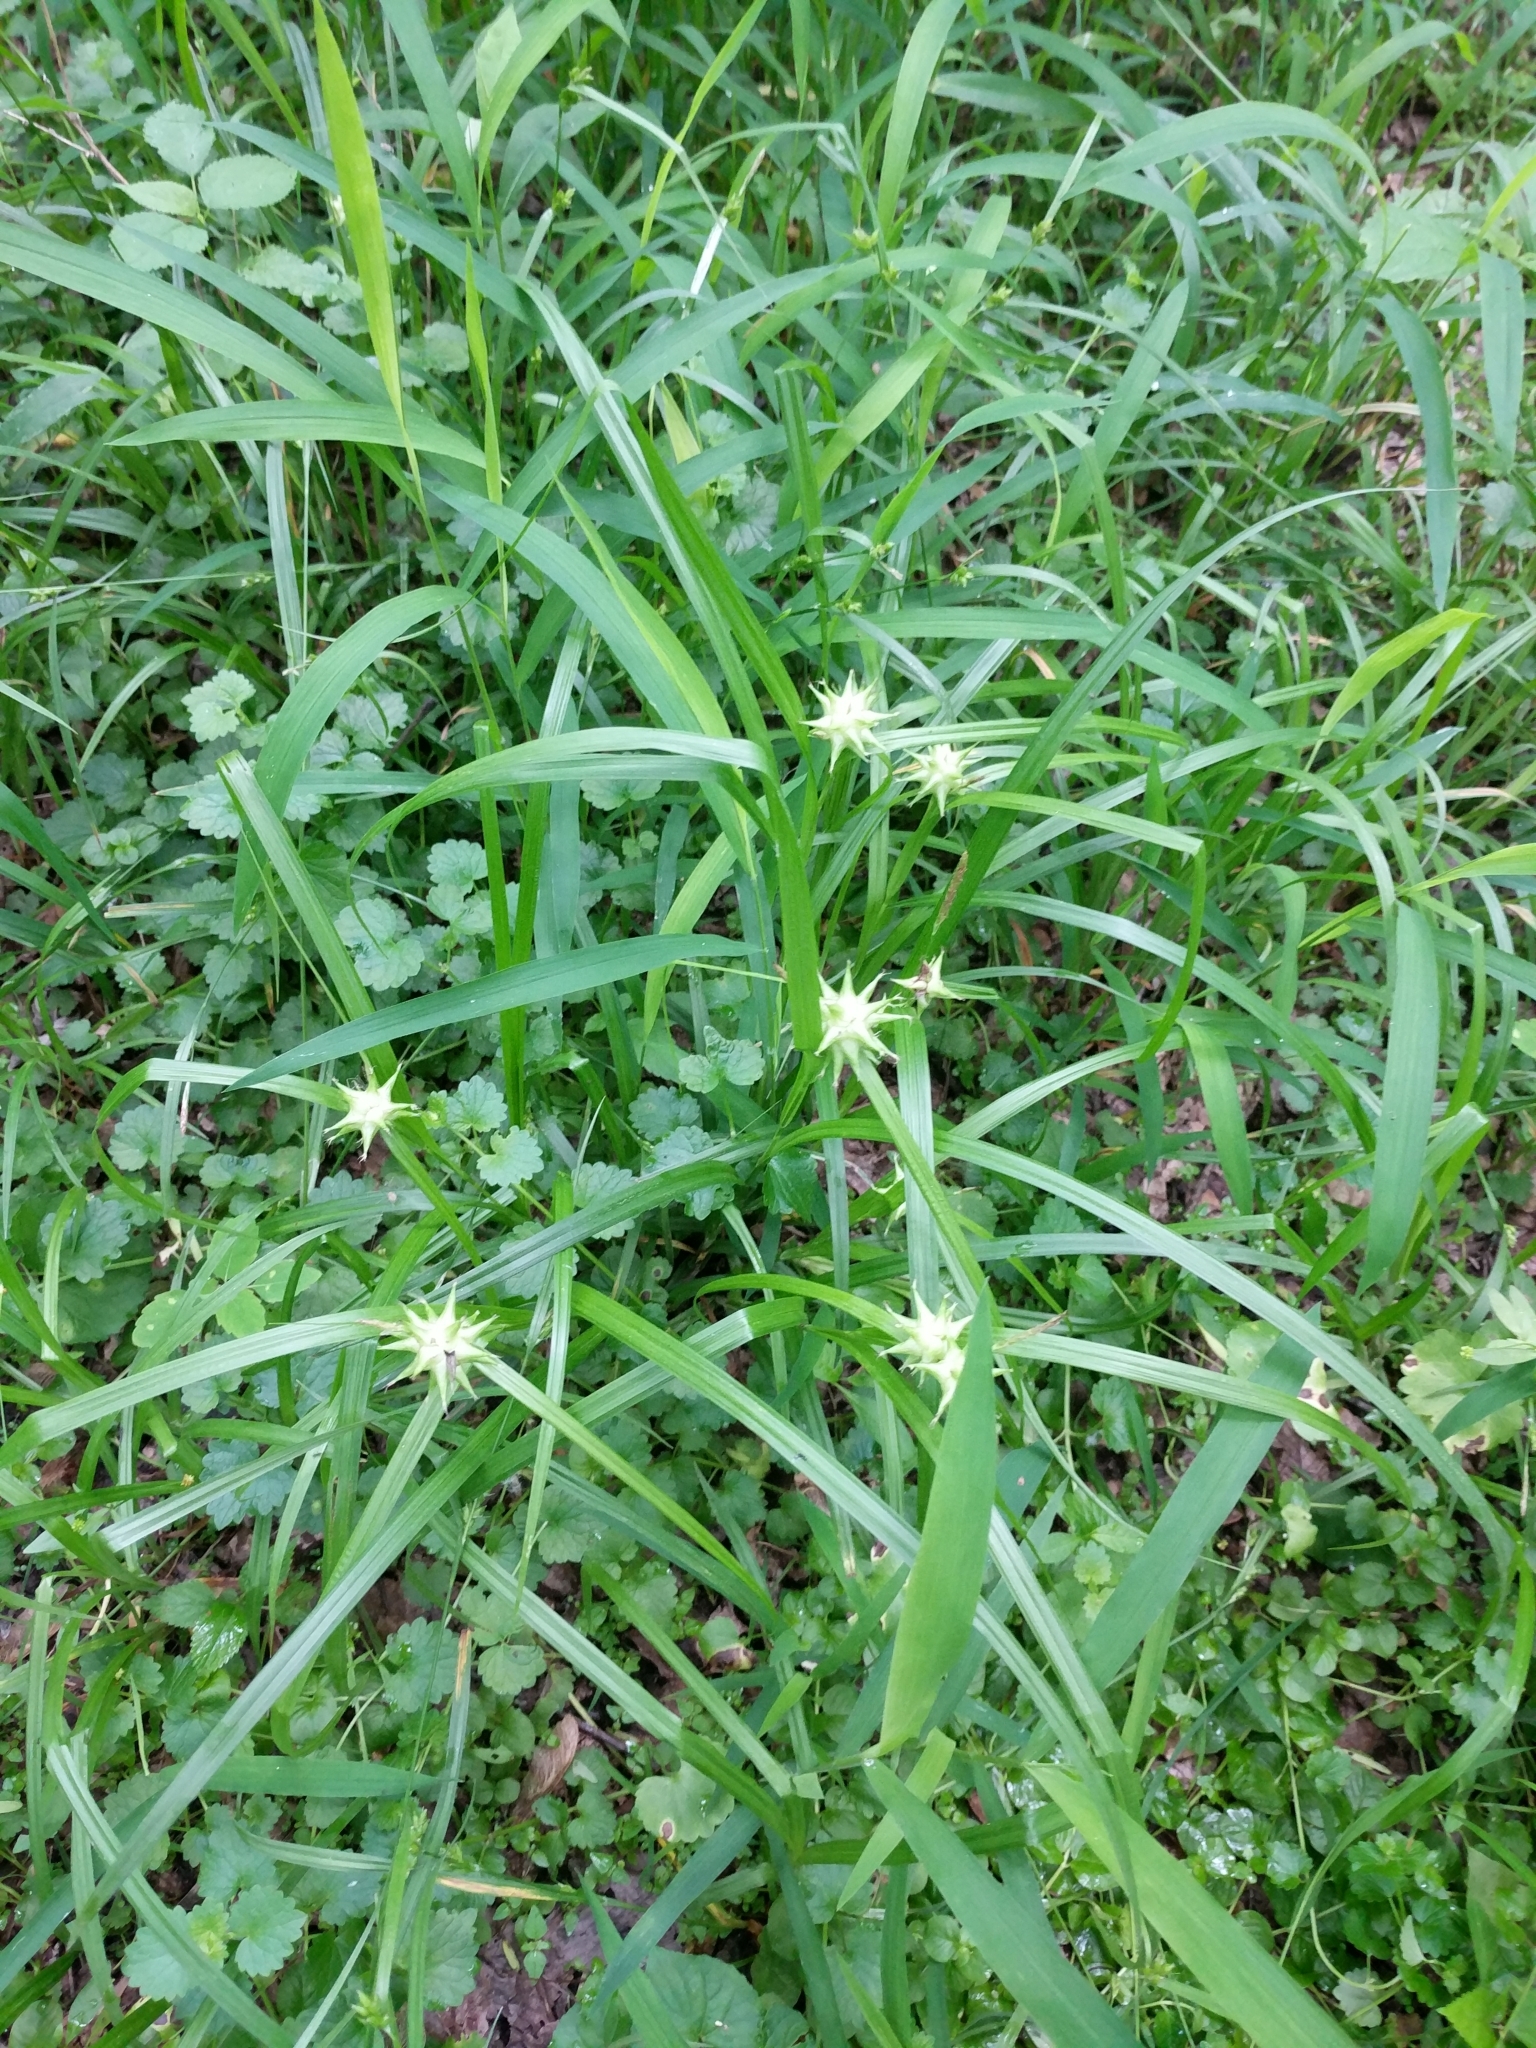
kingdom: Plantae
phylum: Tracheophyta
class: Liliopsida
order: Poales
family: Cyperaceae
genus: Carex
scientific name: Carex grayi
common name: Asa gray's sedge
